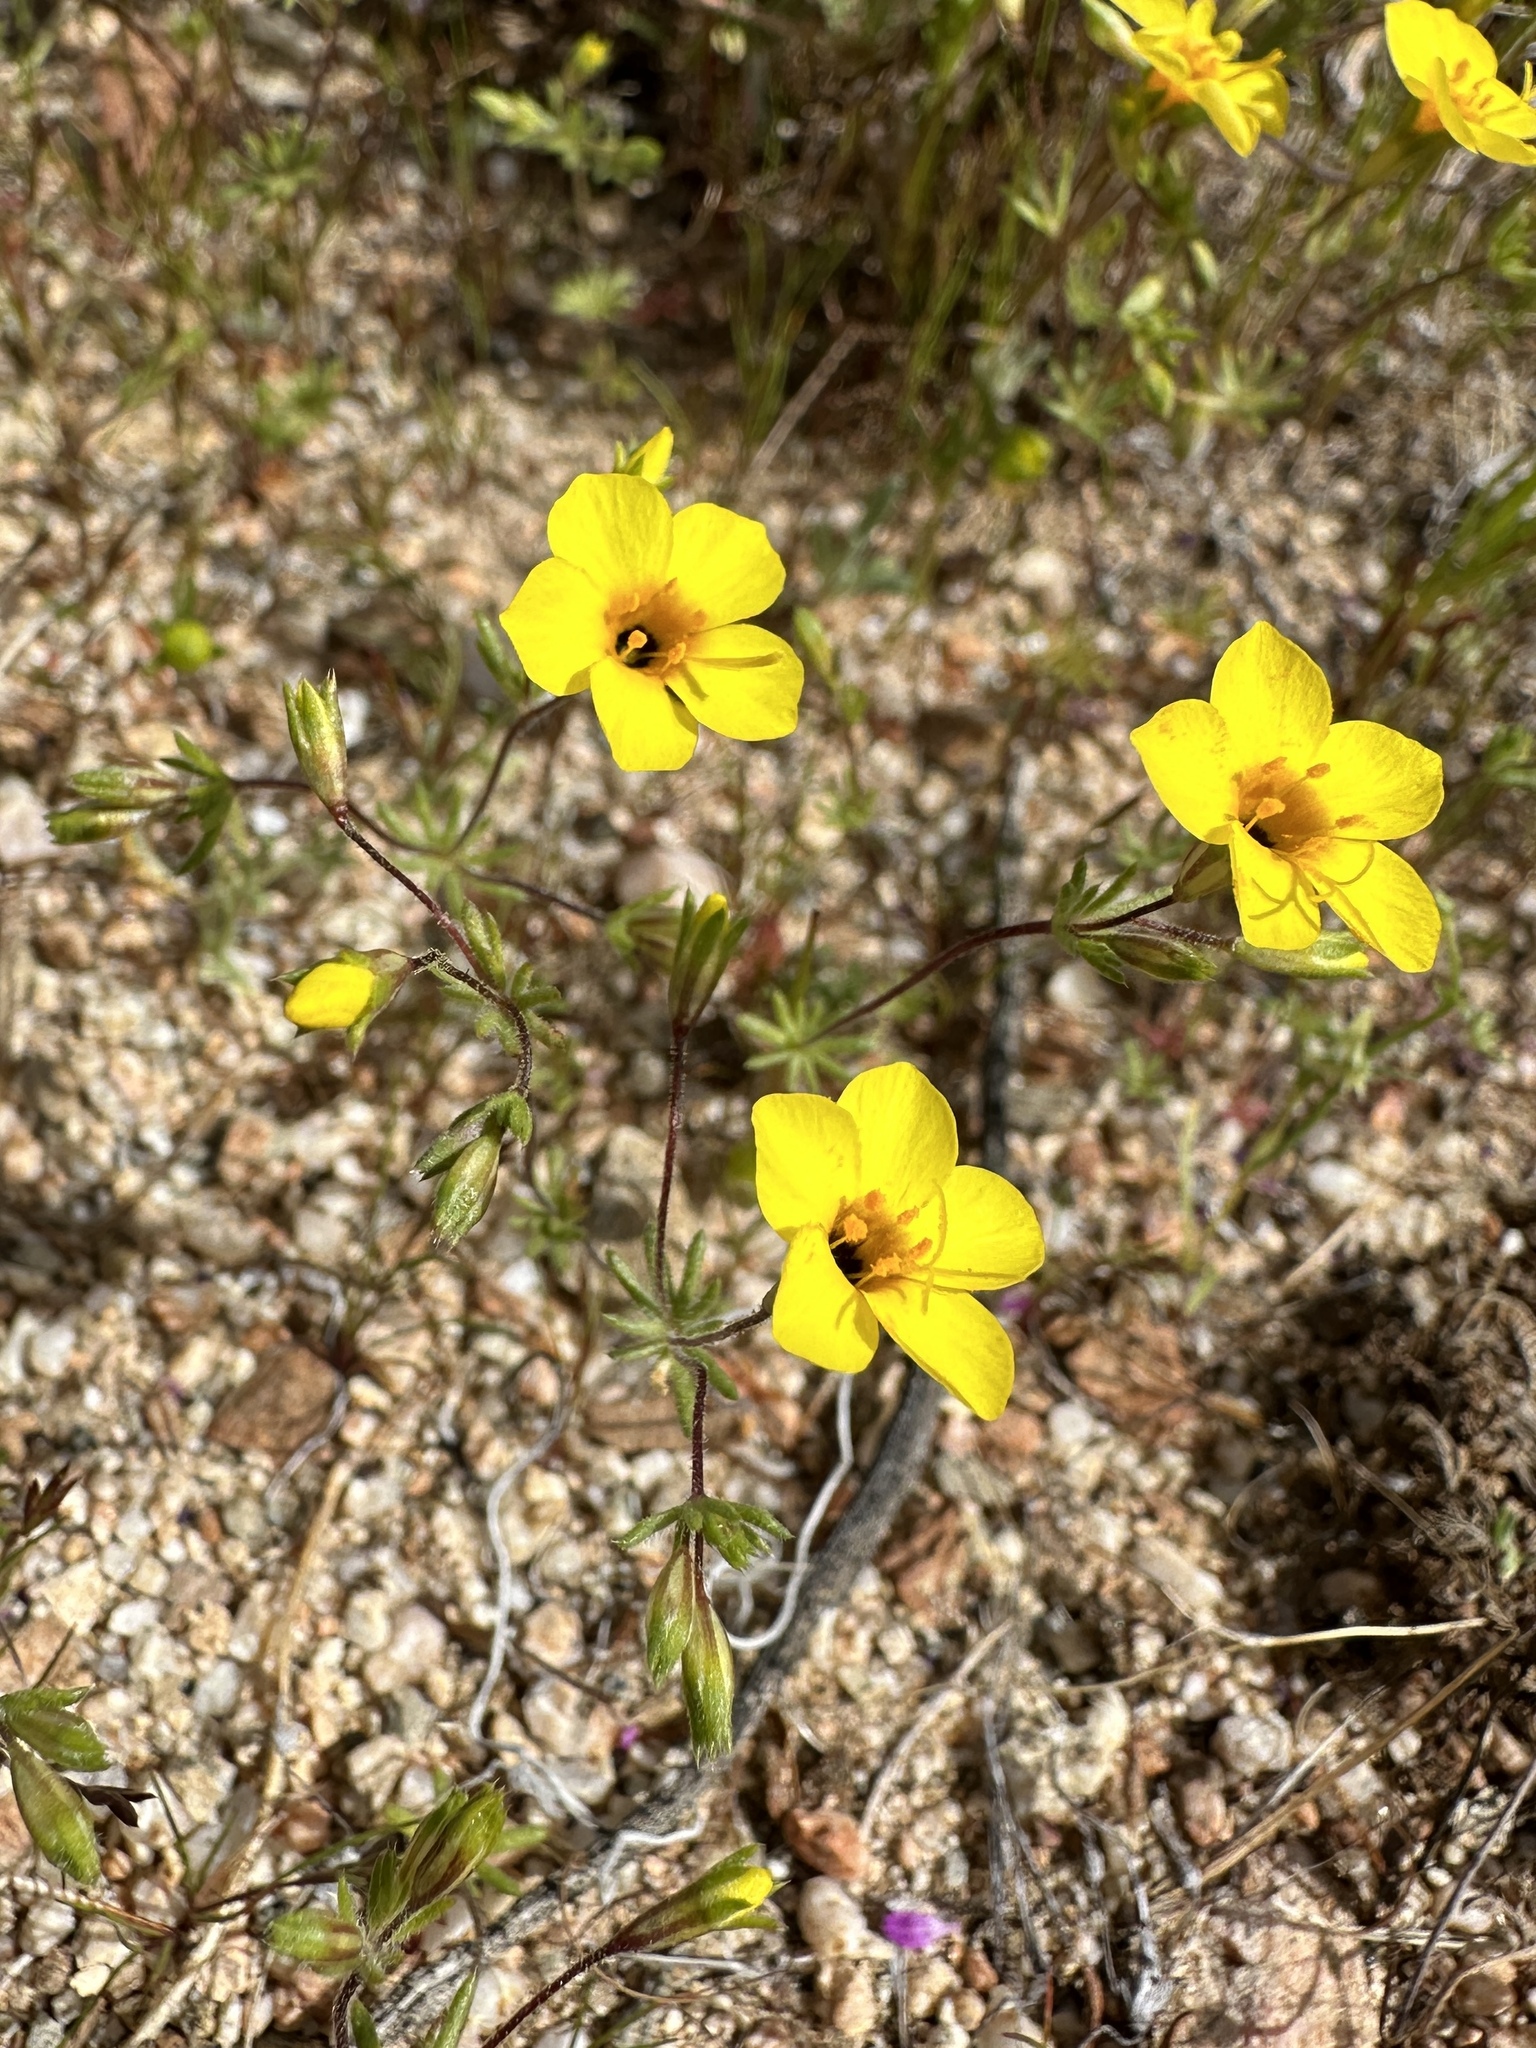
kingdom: Plantae
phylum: Tracheophyta
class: Magnoliopsida
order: Ericales
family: Polemoniaceae
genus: Leptosiphon
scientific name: Leptosiphon chrysanthus
